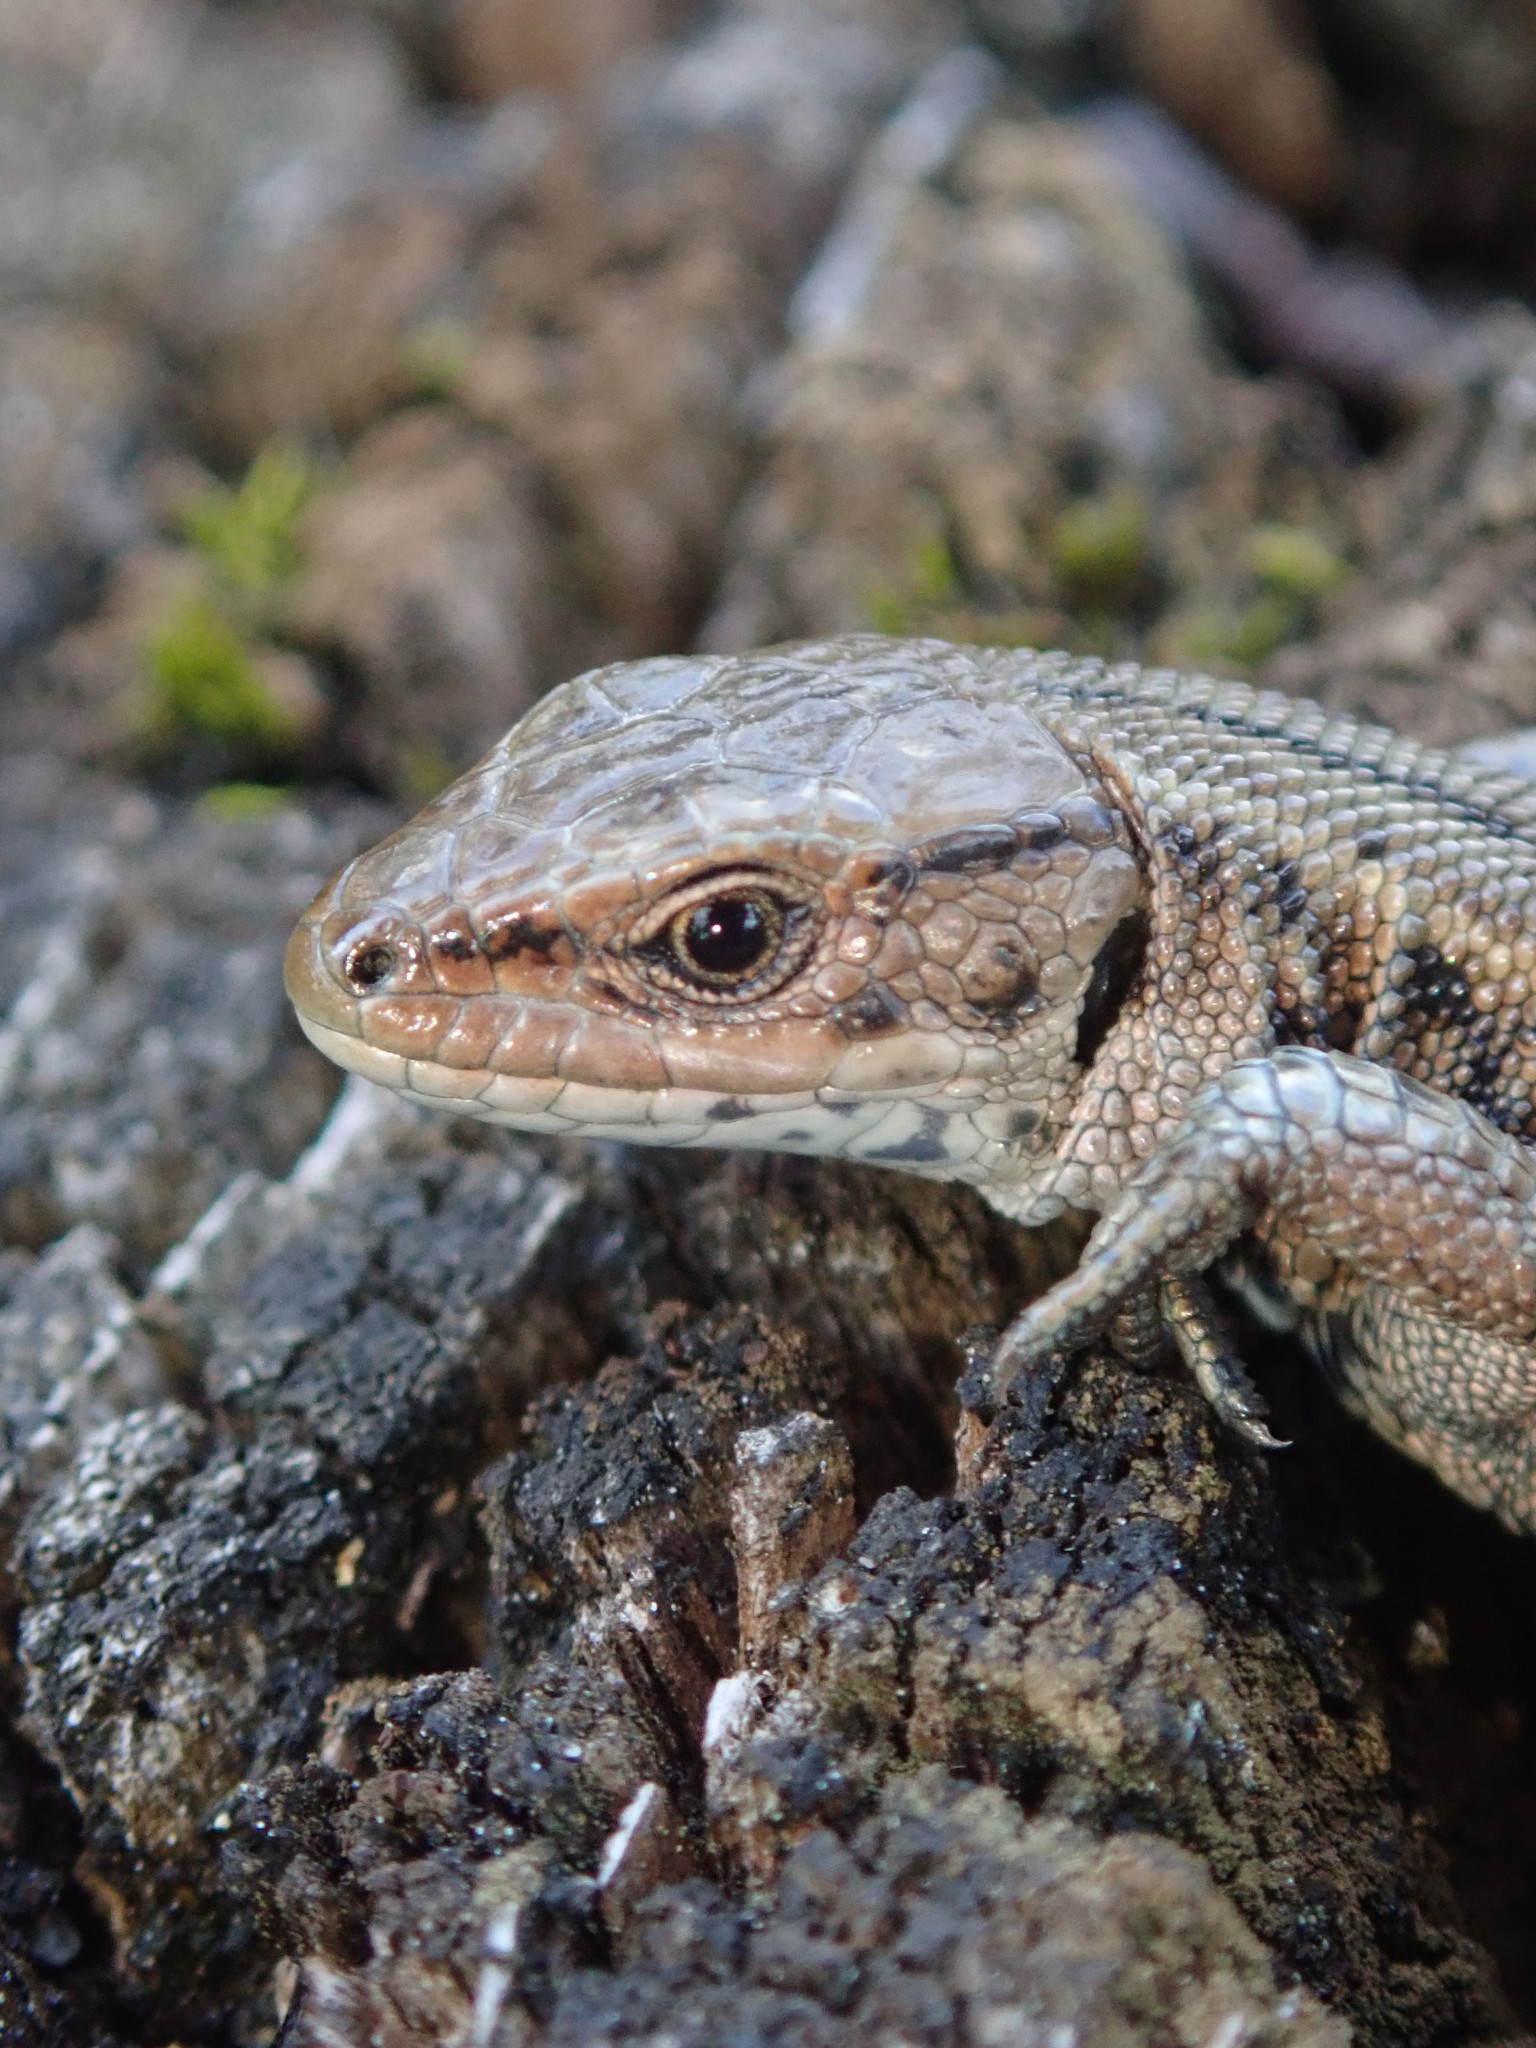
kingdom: Animalia
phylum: Chordata
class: Squamata
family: Lacertidae
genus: Zootoca
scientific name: Zootoca vivipara
